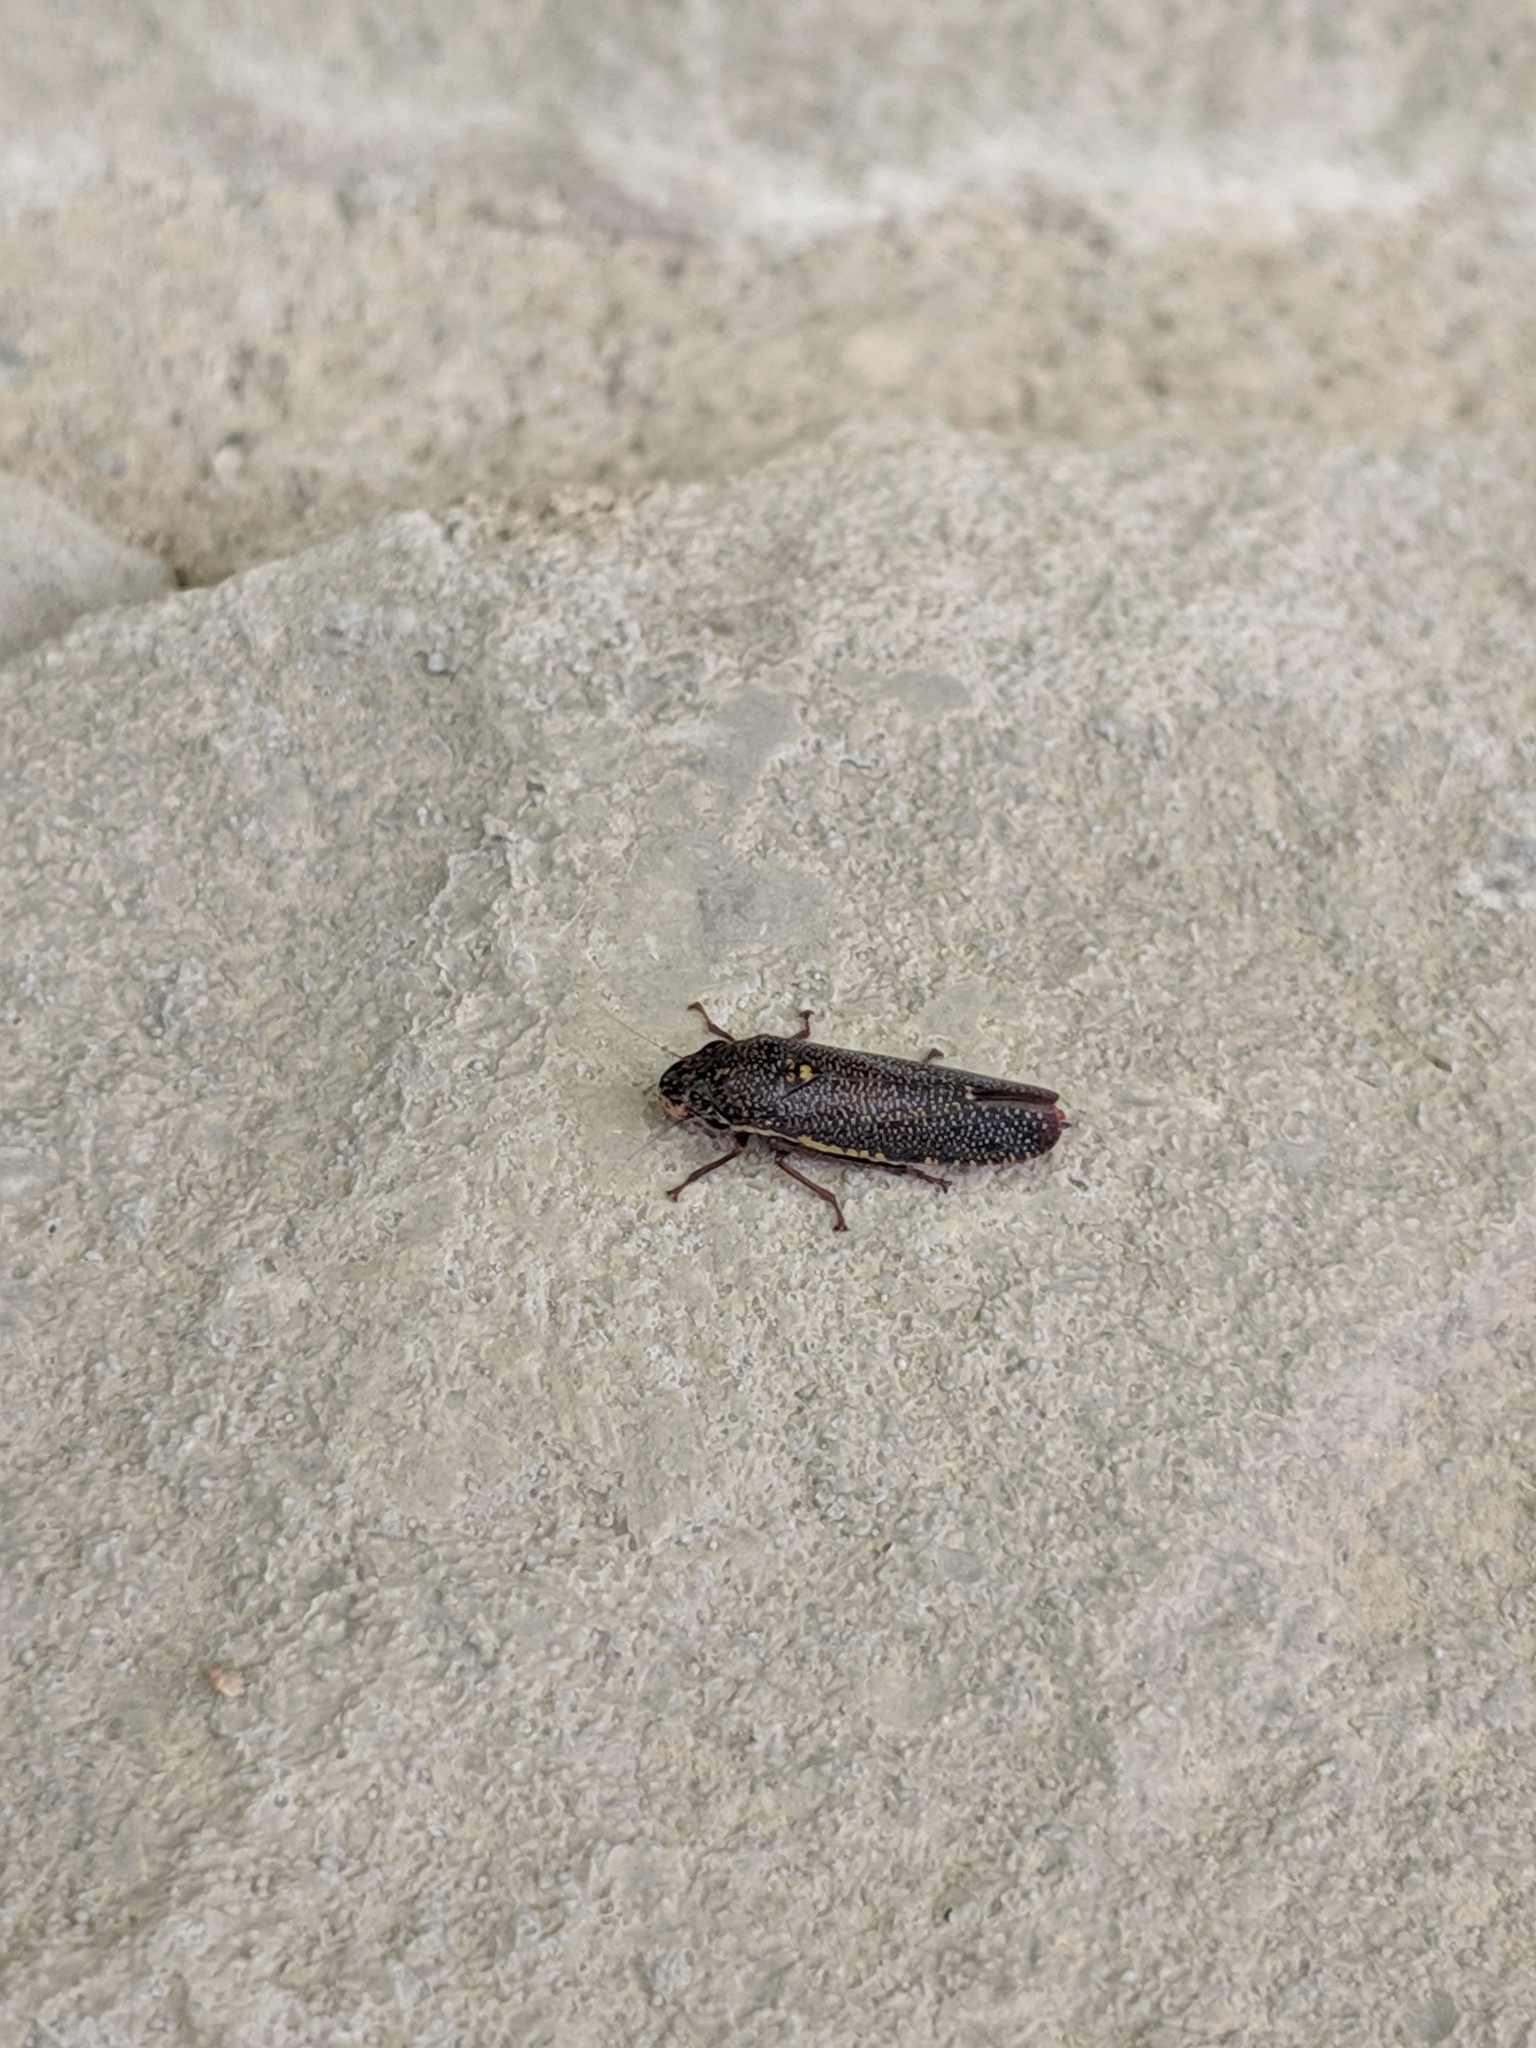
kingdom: Animalia
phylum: Arthropoda
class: Insecta
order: Hemiptera
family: Cicadellidae
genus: Paraulacizes
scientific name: Paraulacizes irrorata
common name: Speckled sharpshooter
